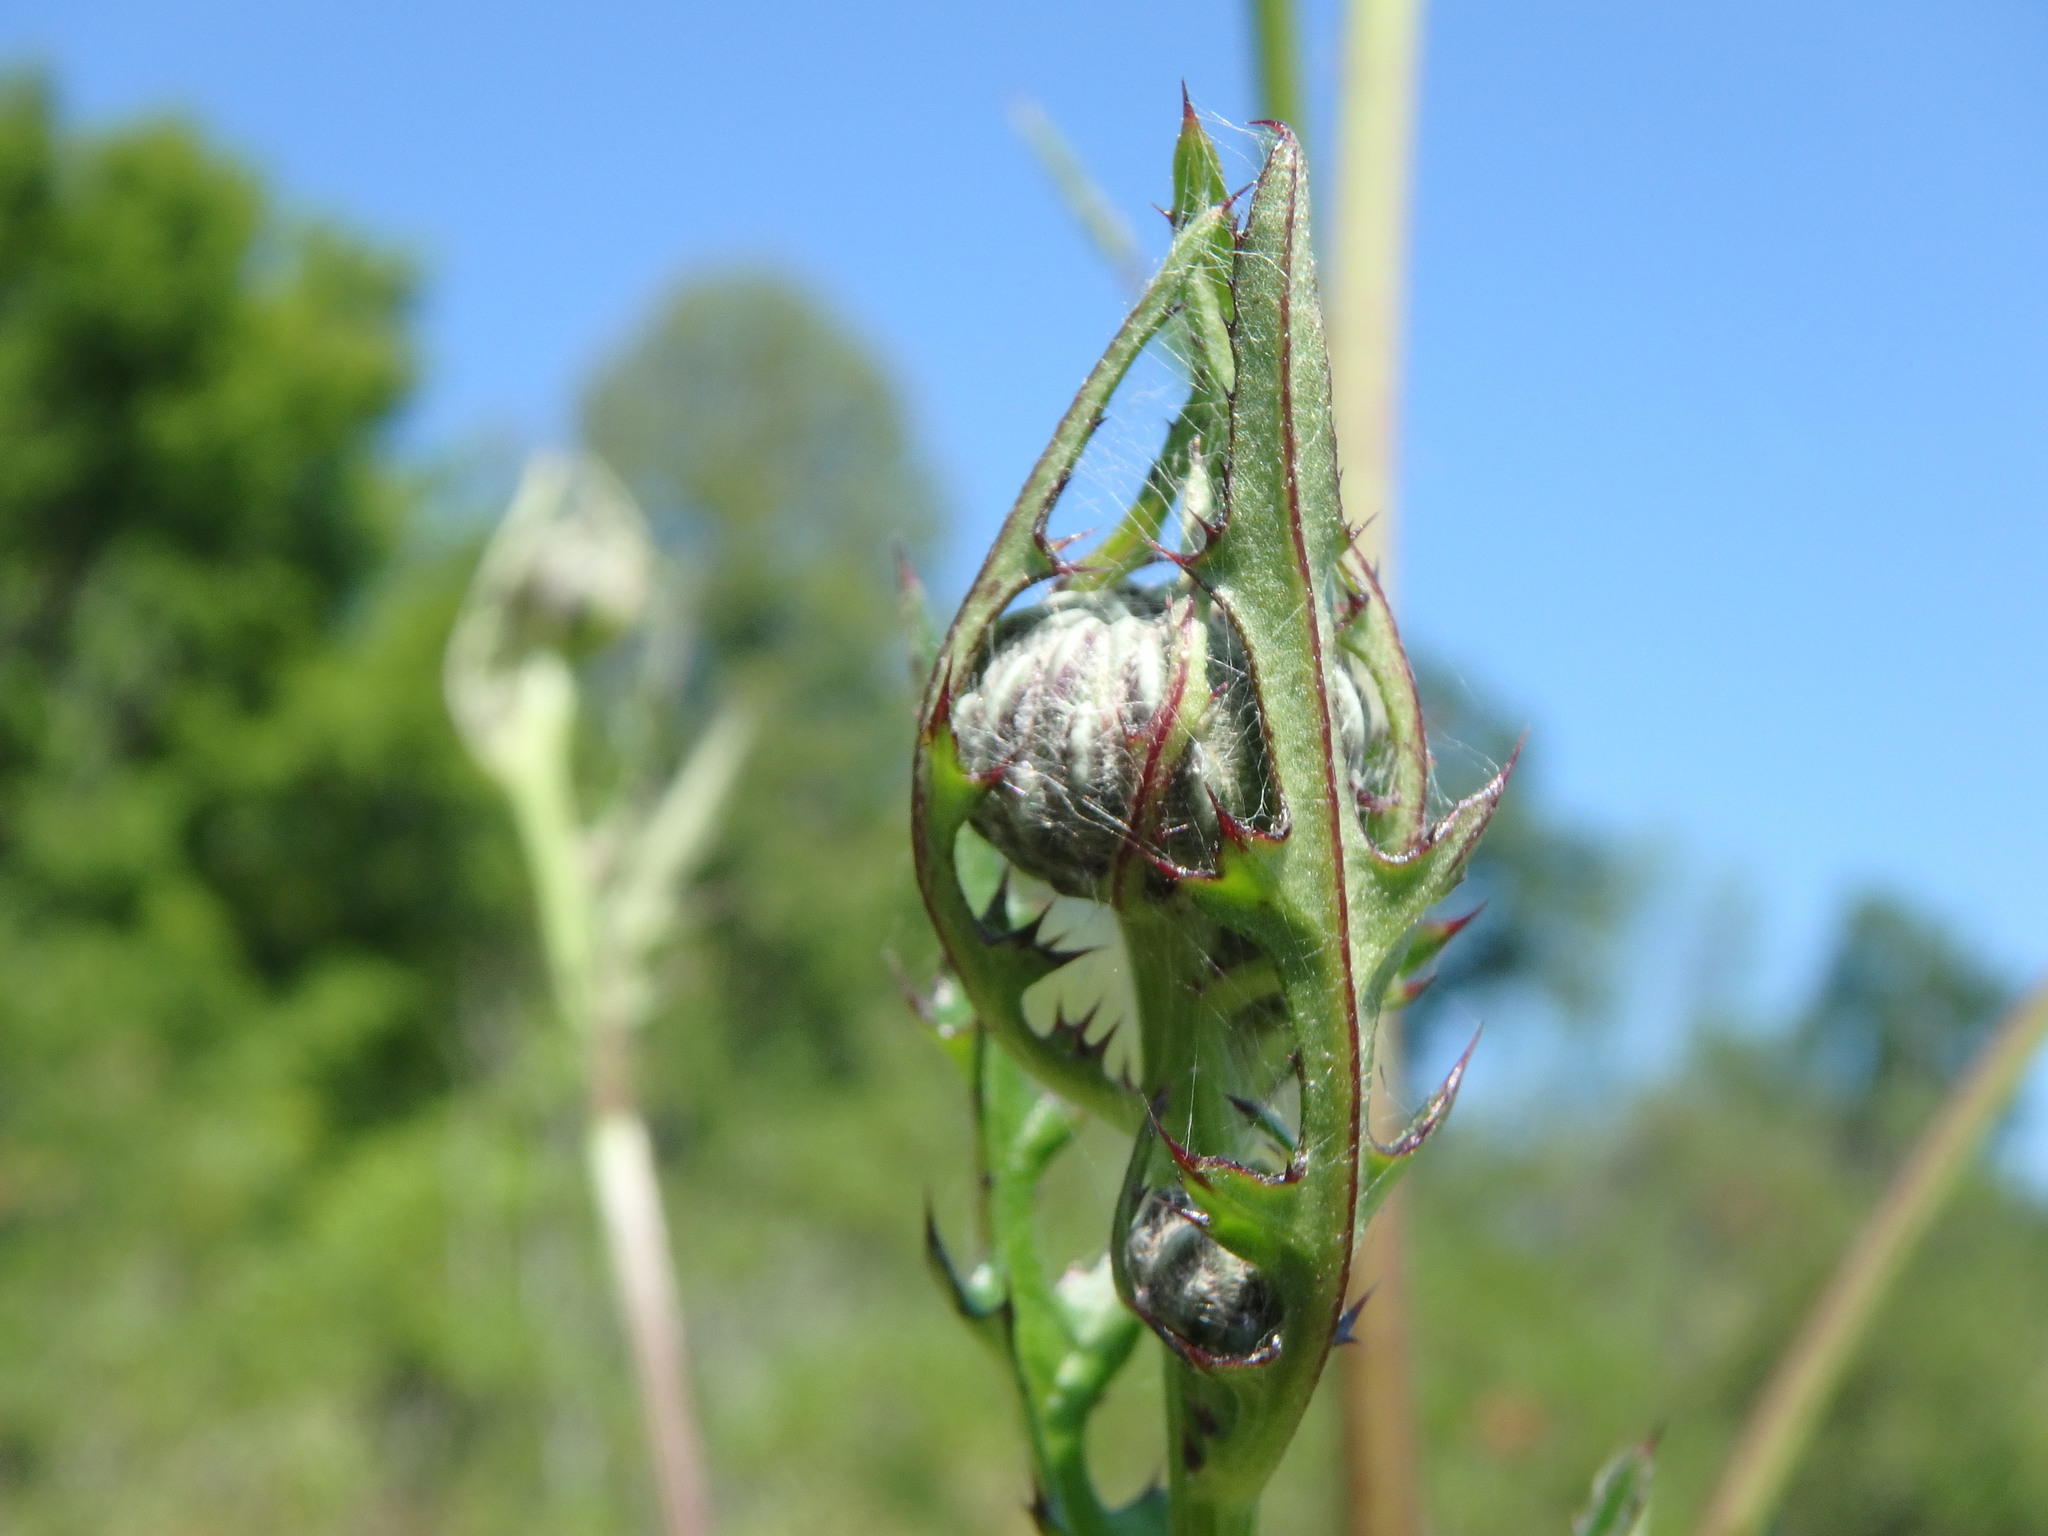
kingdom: Plantae
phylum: Tracheophyta
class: Magnoliopsida
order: Asterales
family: Asteraceae
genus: Cirsium
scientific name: Cirsium muticum
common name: Dunce-nettle
